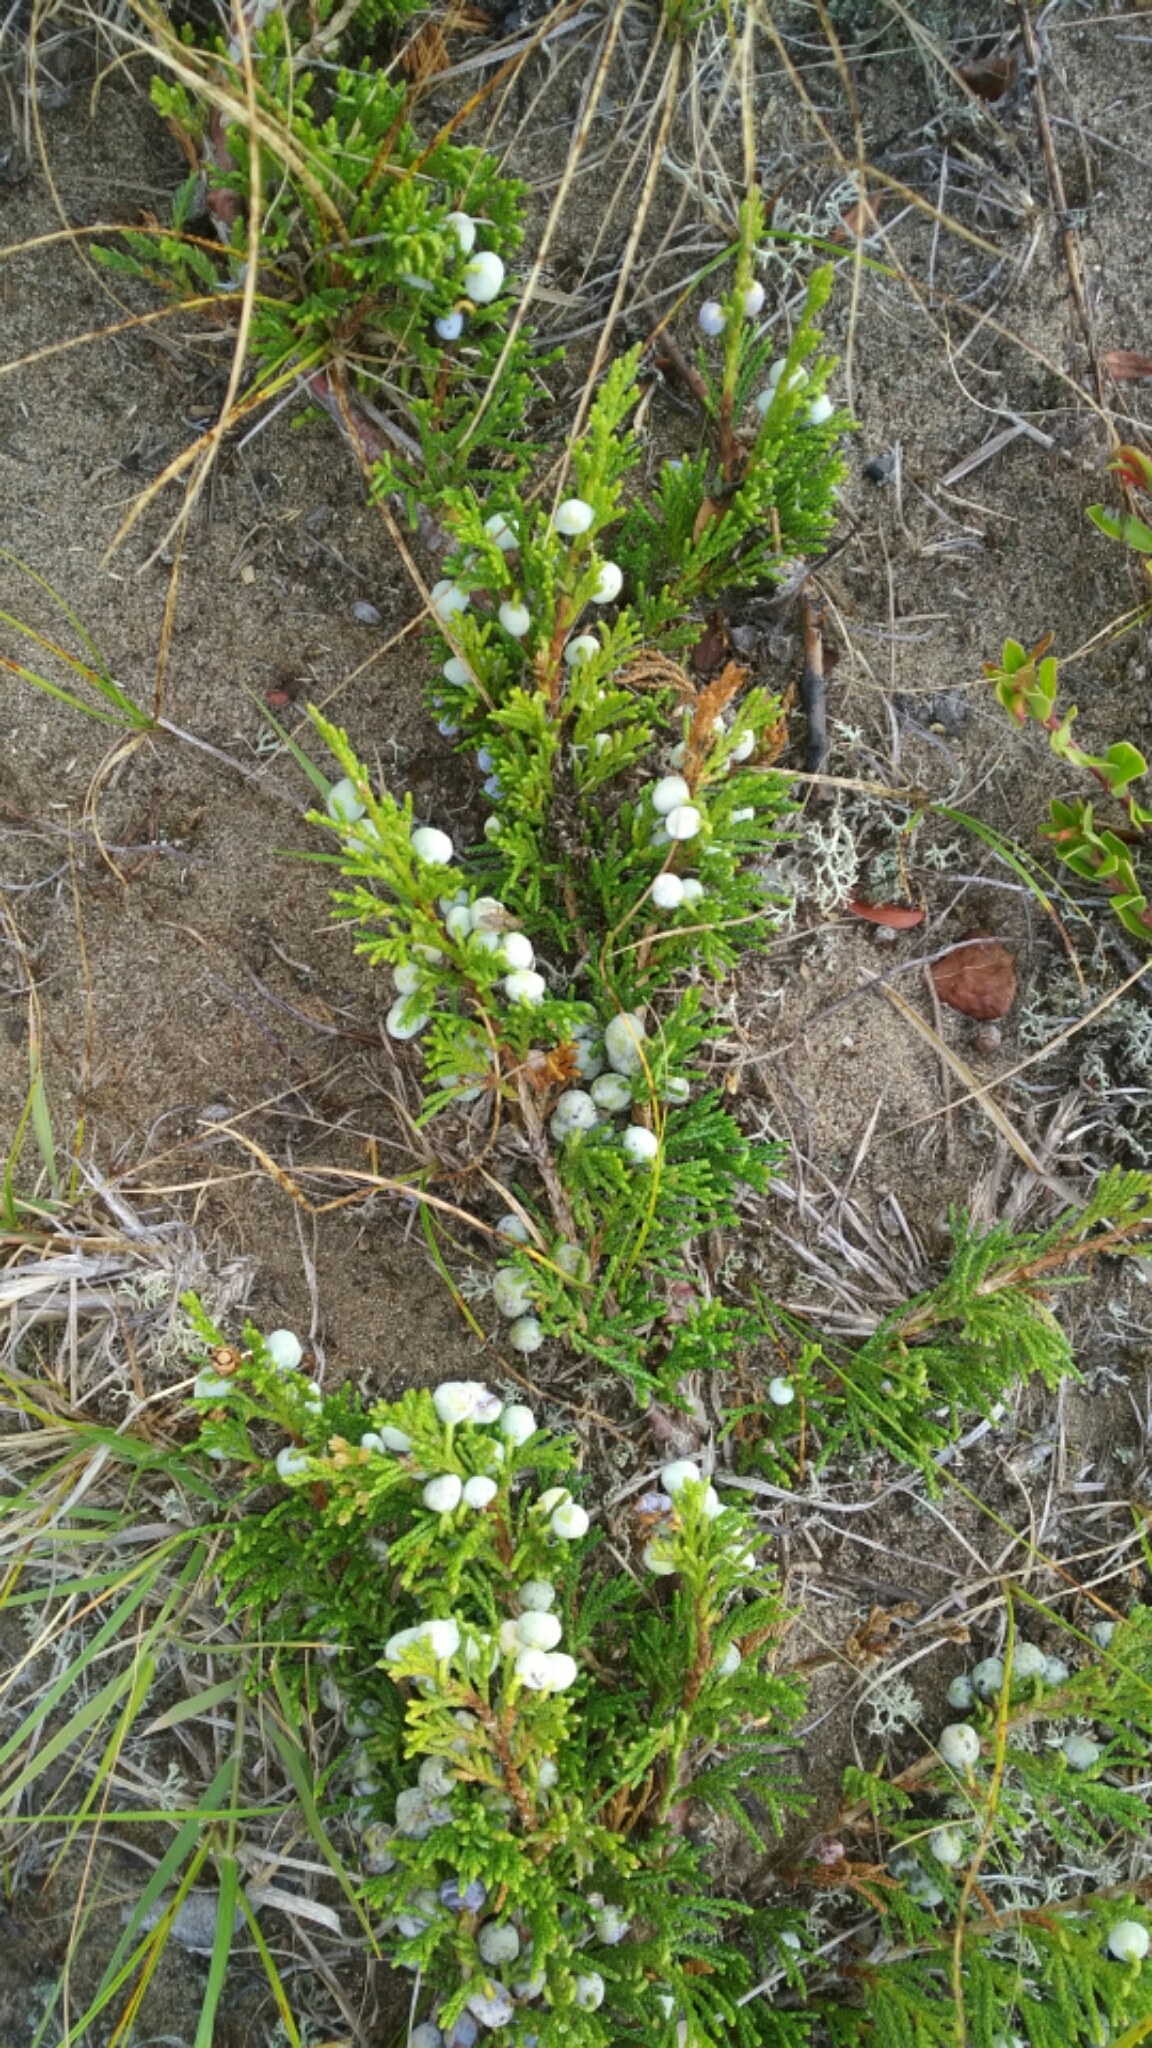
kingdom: Plantae
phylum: Tracheophyta
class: Pinopsida
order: Pinales
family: Cupressaceae
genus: Juniperus
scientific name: Juniperus horizontalis
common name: Creeping juniper
